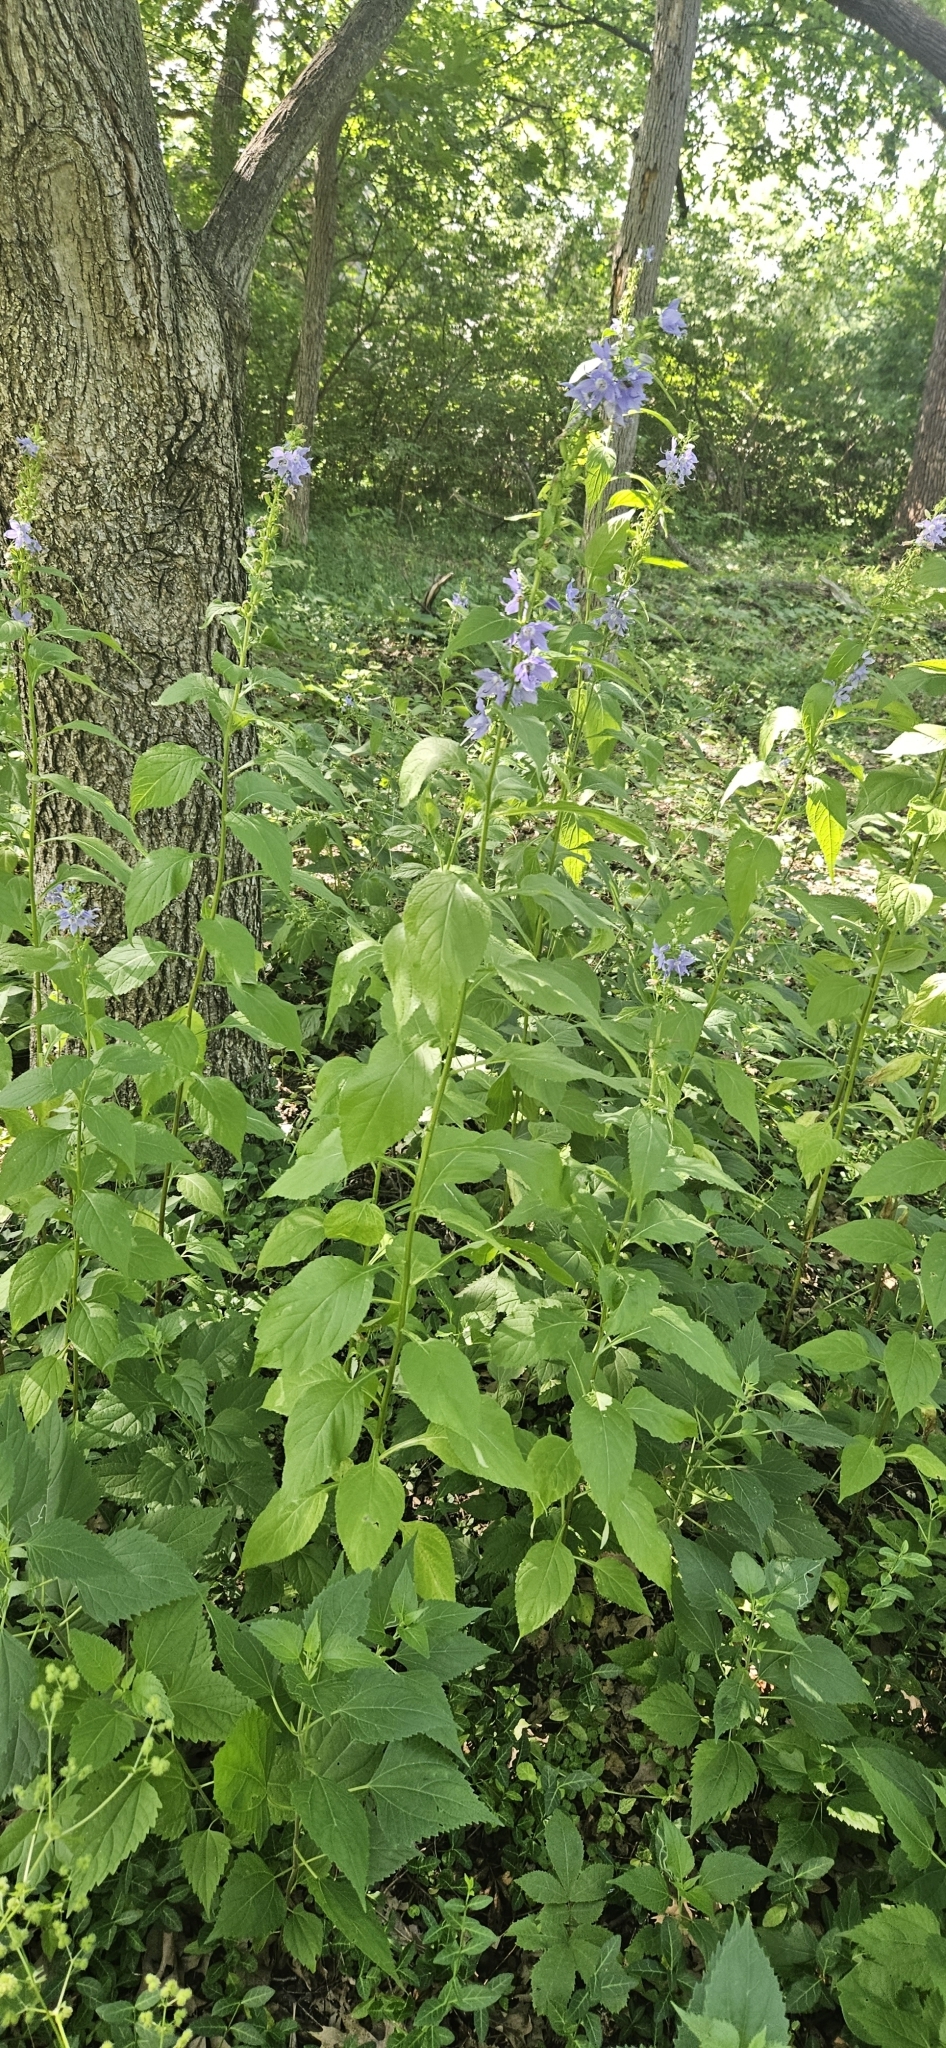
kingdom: Plantae
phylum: Tracheophyta
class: Magnoliopsida
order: Asterales
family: Campanulaceae
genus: Campanulastrum
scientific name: Campanulastrum americanum
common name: American bellflower
